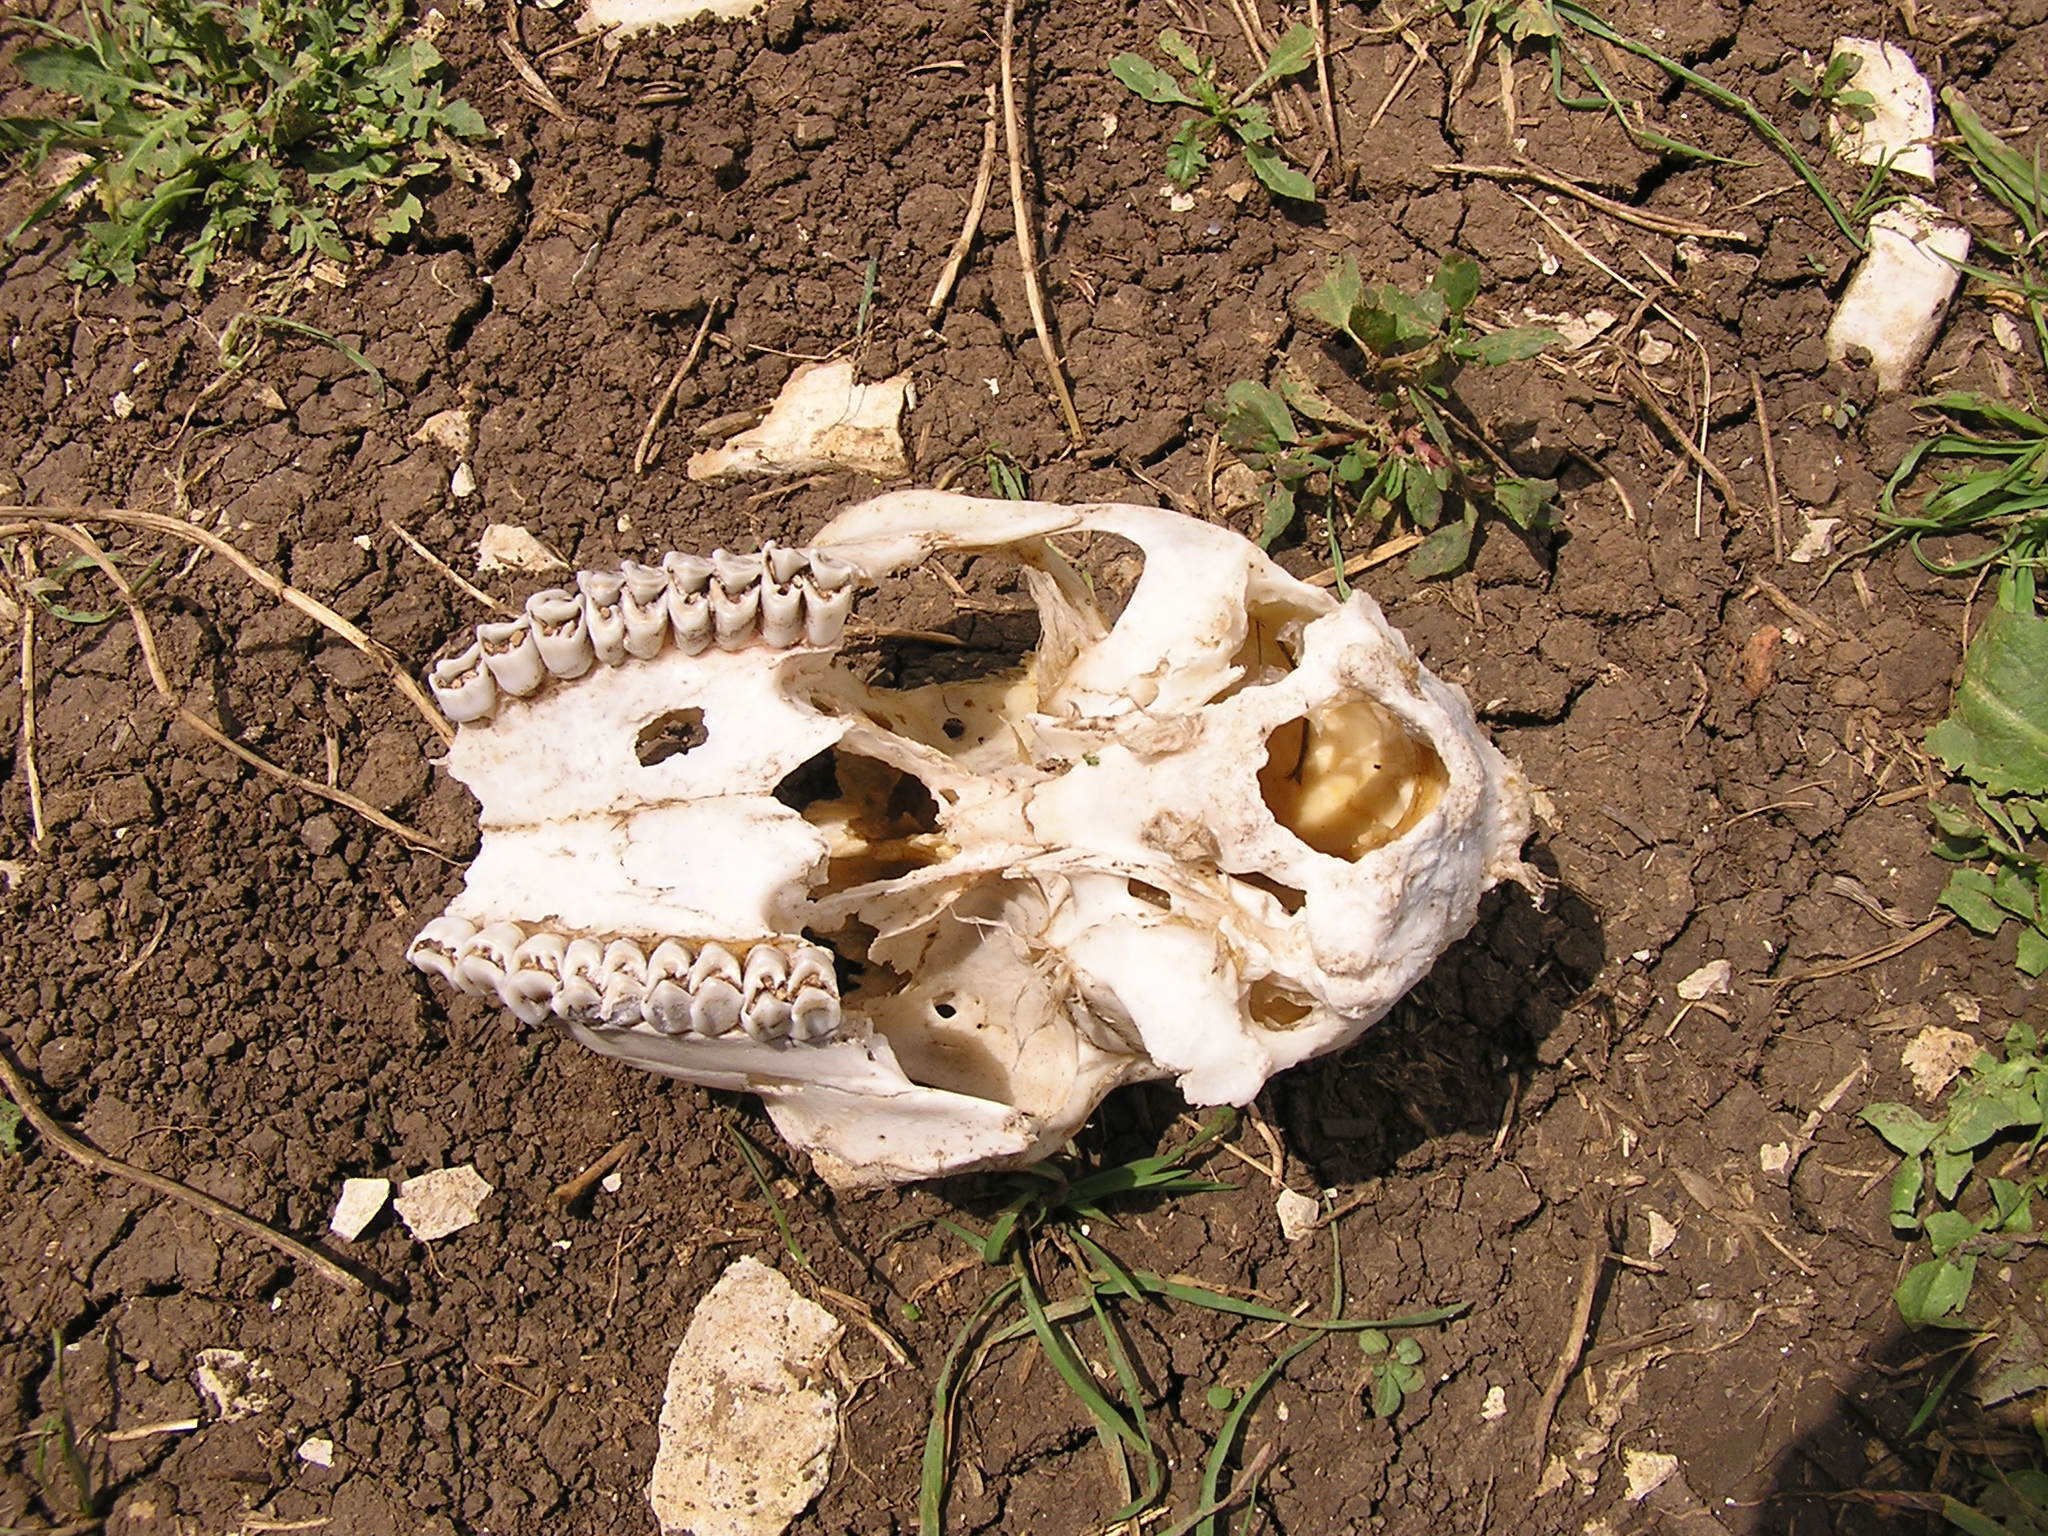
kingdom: Animalia
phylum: Chordata
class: Mammalia
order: Artiodactyla
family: Cervidae
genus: Capreolus
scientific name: Capreolus capreolus
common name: Western roe deer
